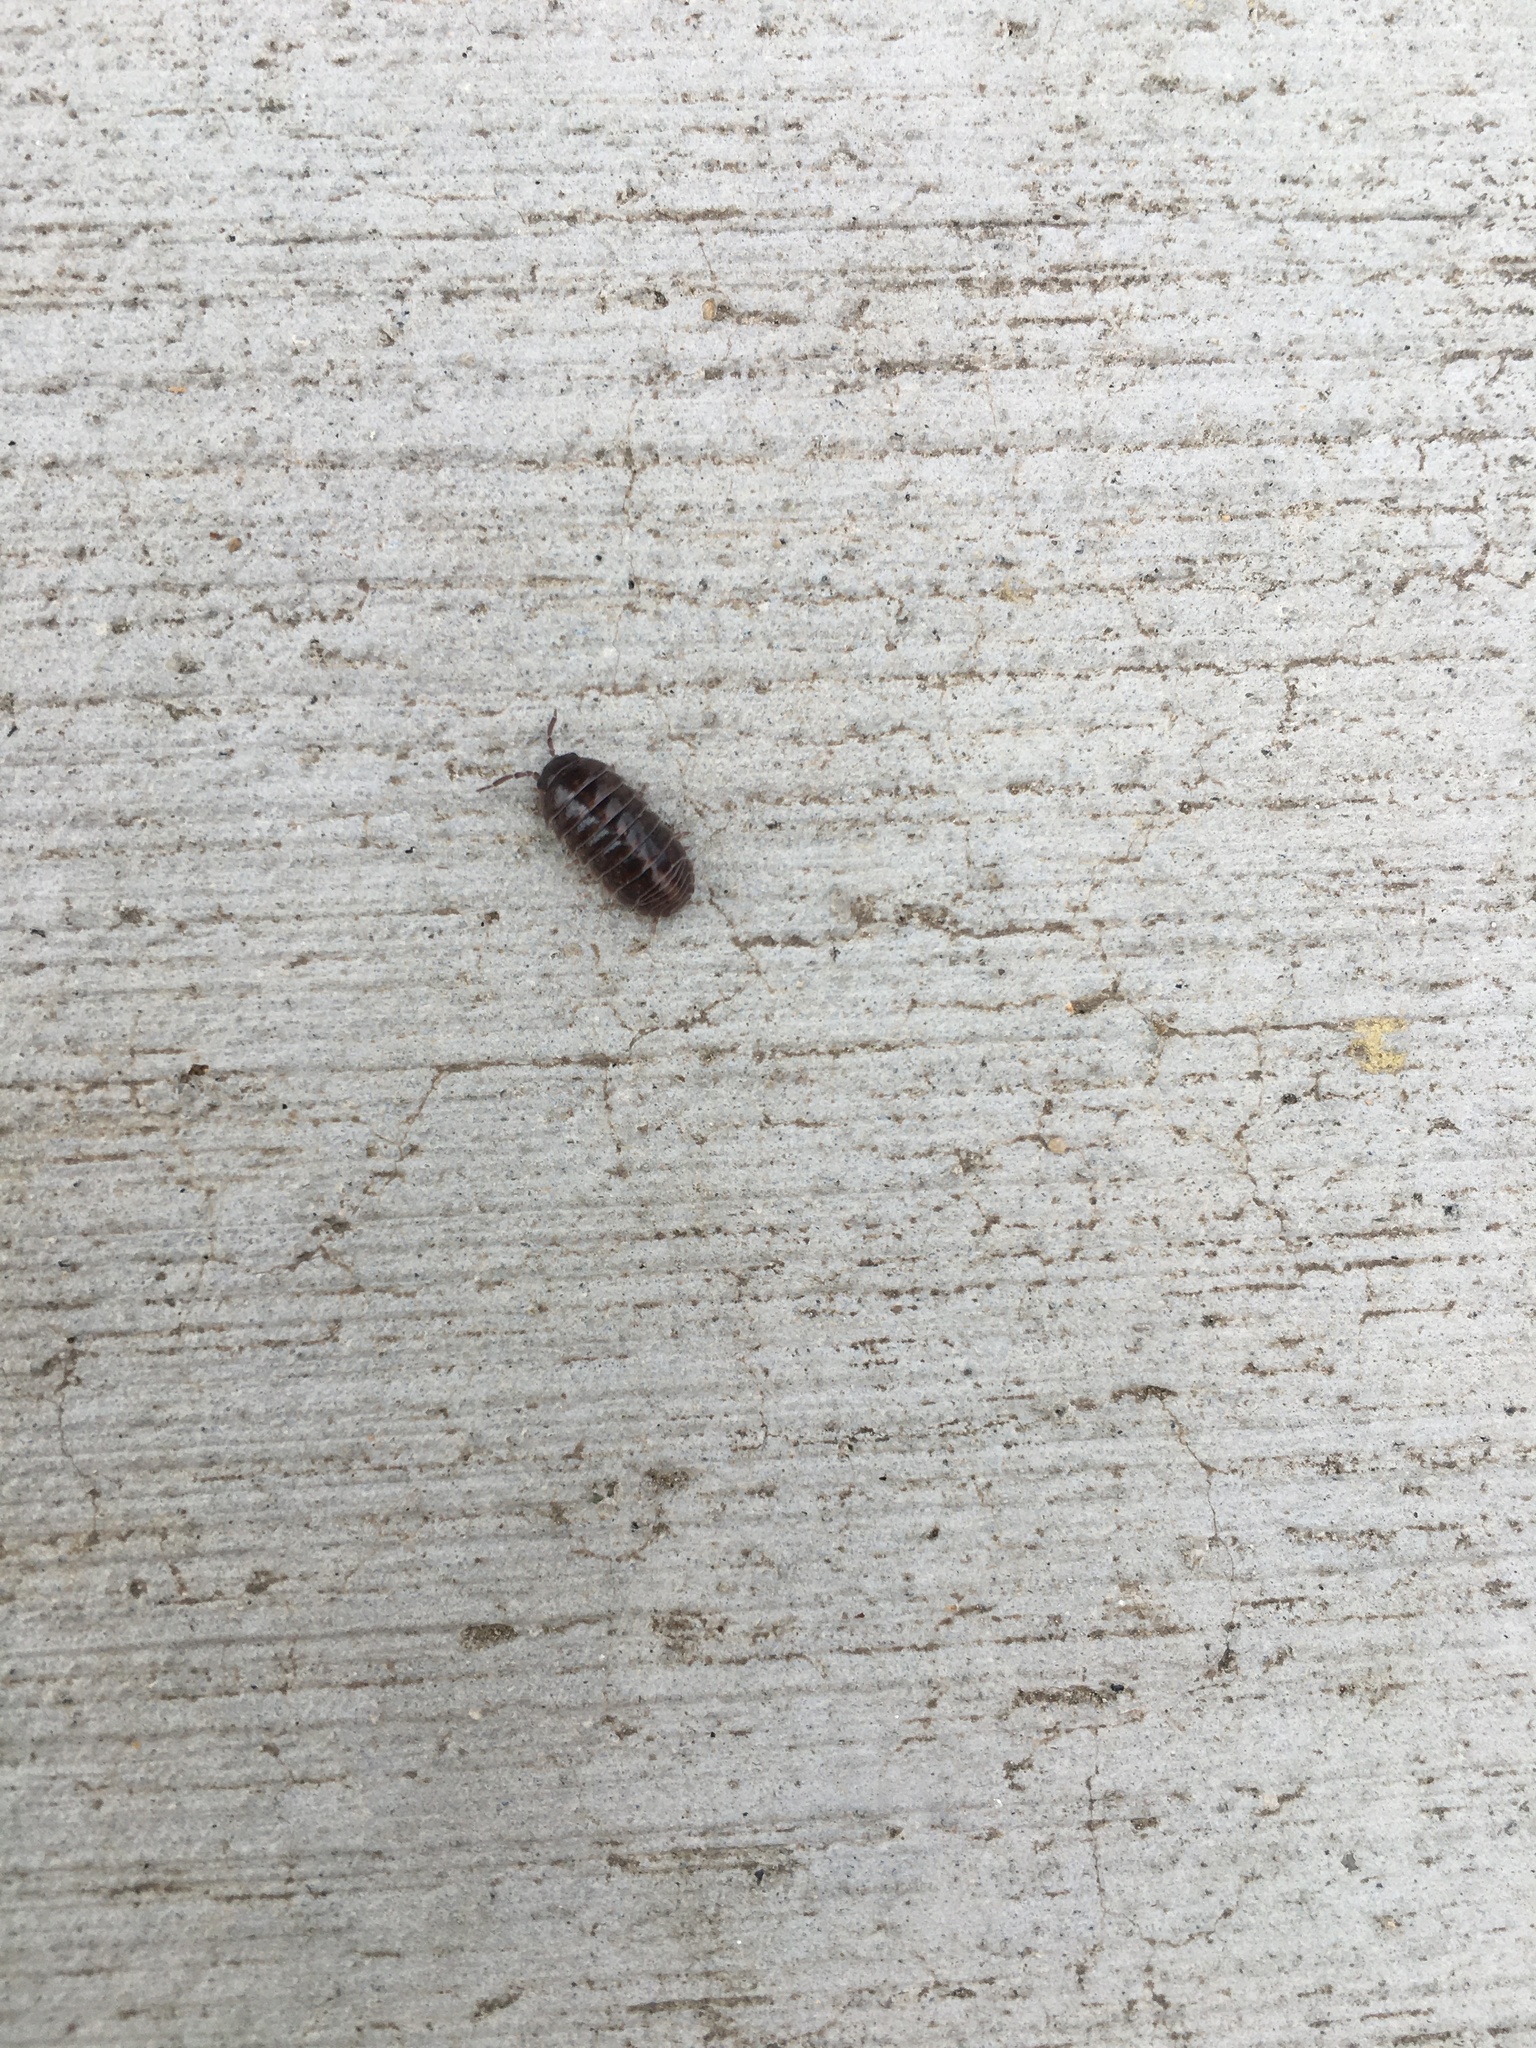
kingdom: Animalia
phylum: Arthropoda
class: Malacostraca
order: Isopoda
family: Armadillidiidae
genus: Armadillidium
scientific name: Armadillidium vulgare
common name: Common pill woodlouse
